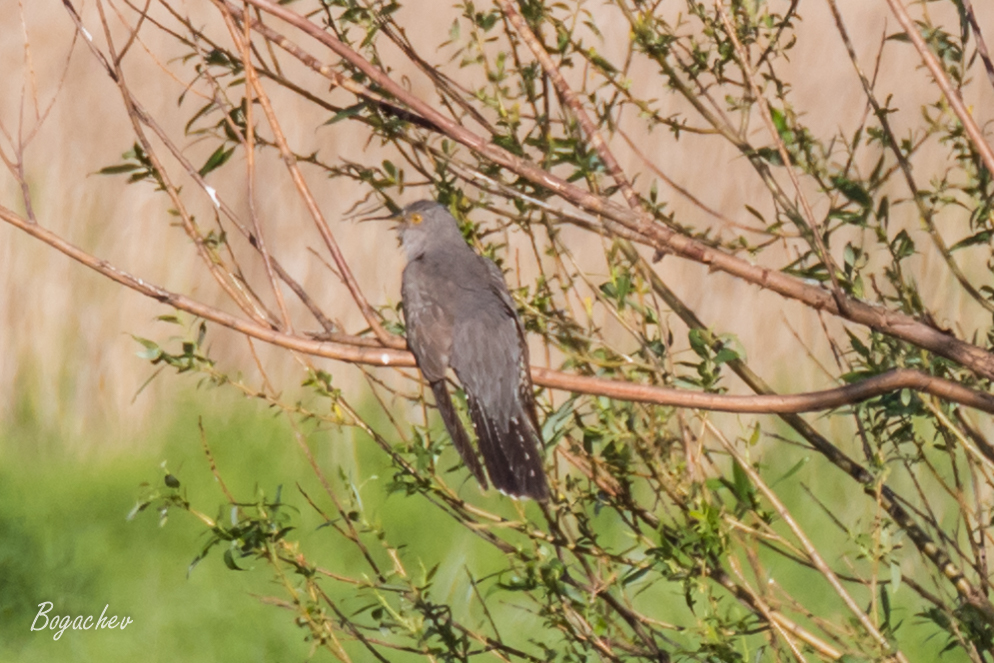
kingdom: Animalia
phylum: Chordata
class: Aves
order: Cuculiformes
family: Cuculidae
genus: Cuculus
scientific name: Cuculus canorus
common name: Common cuckoo
